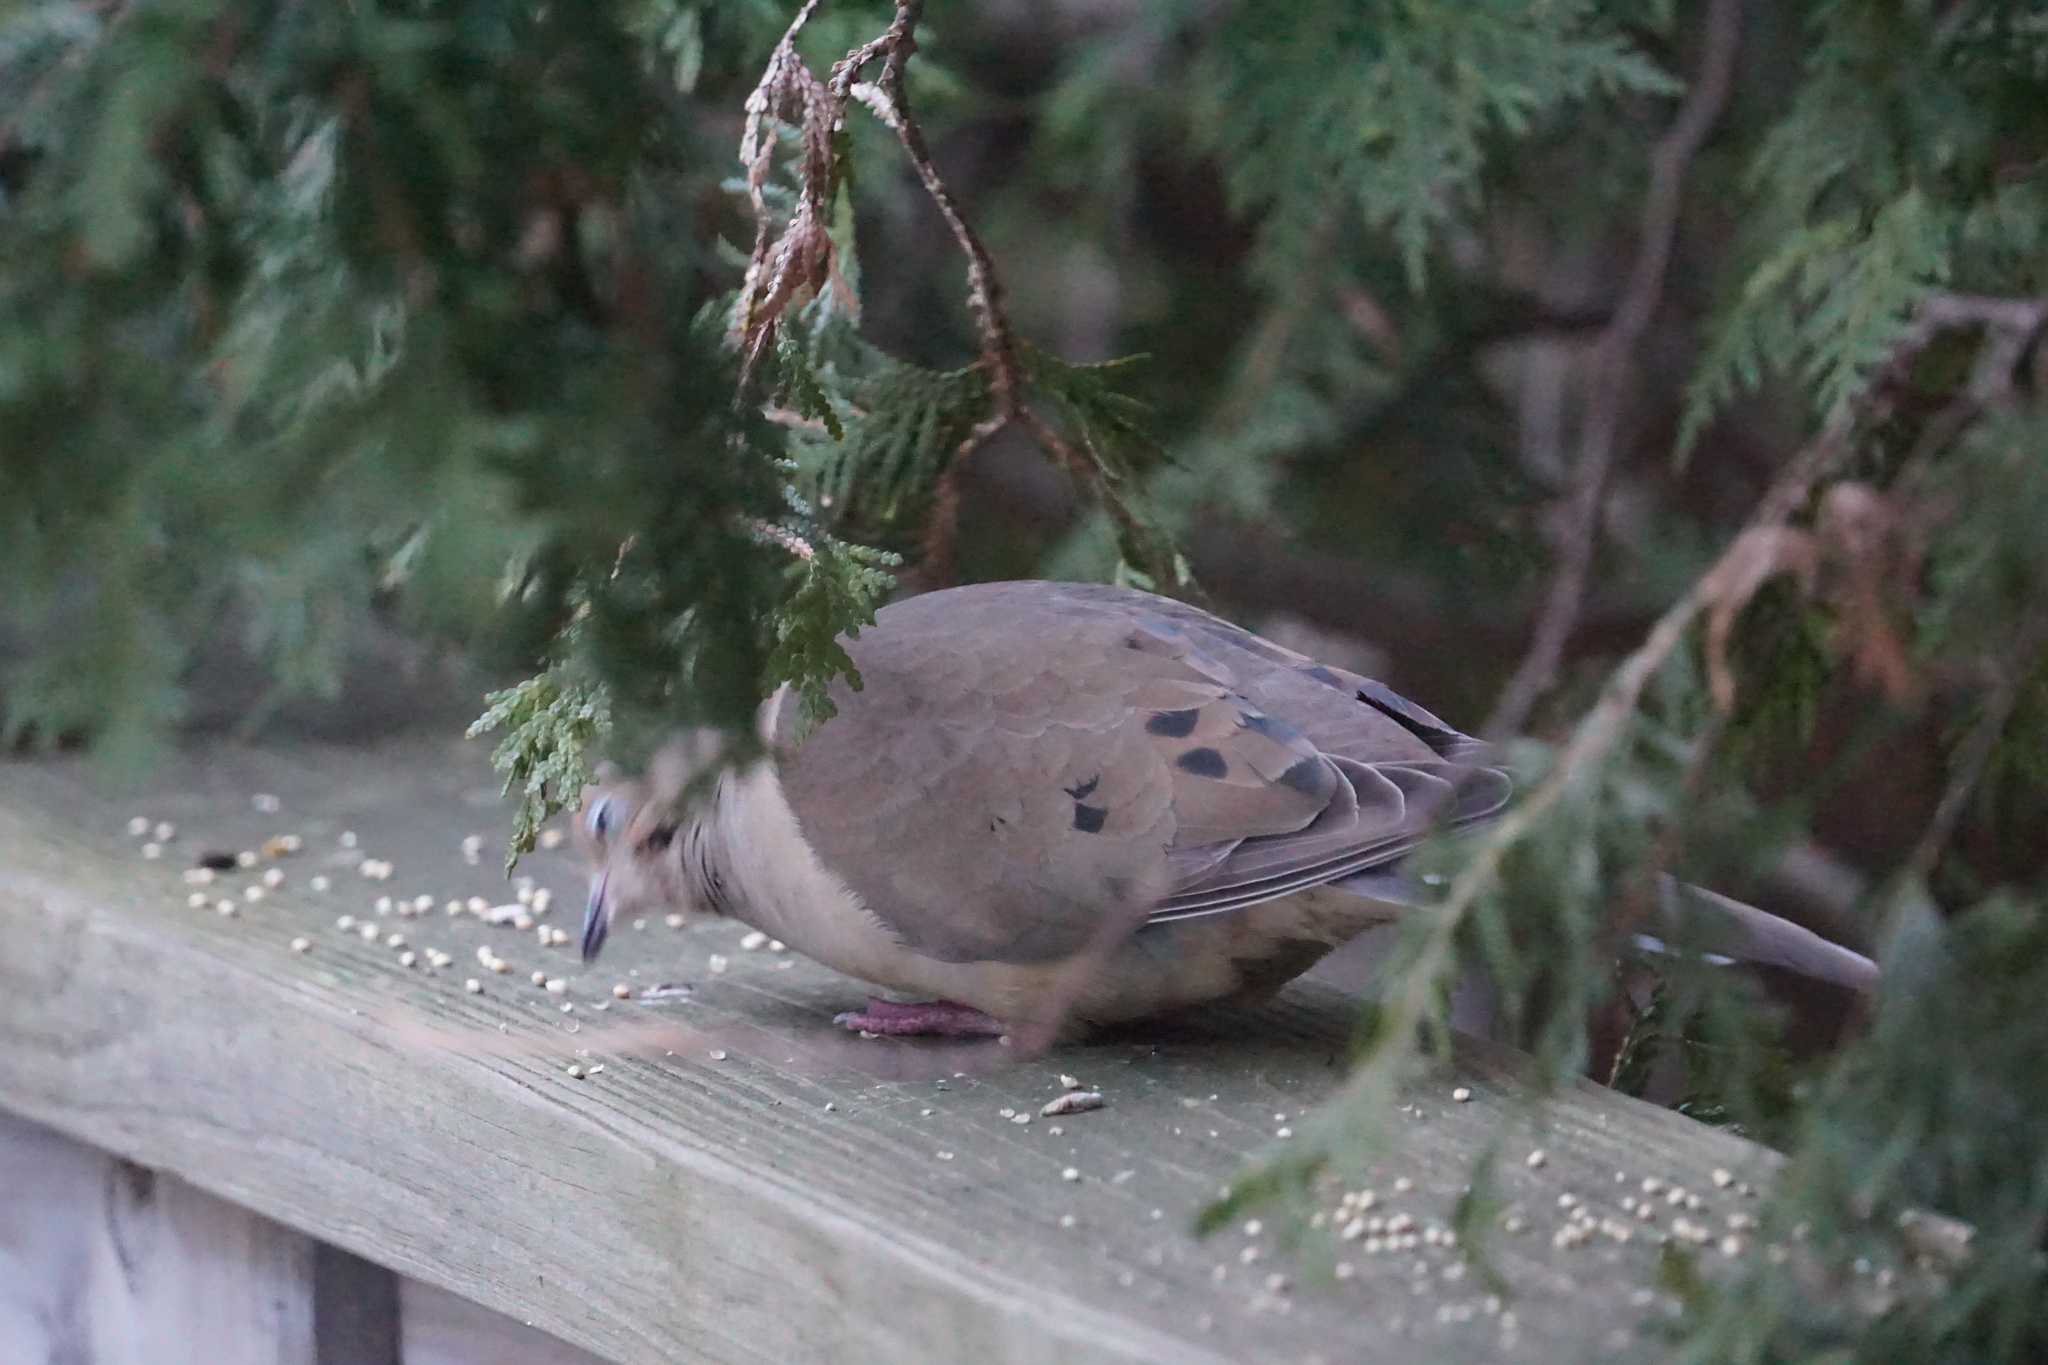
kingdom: Animalia
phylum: Chordata
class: Aves
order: Columbiformes
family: Columbidae
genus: Zenaida
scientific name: Zenaida macroura
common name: Mourning dove
